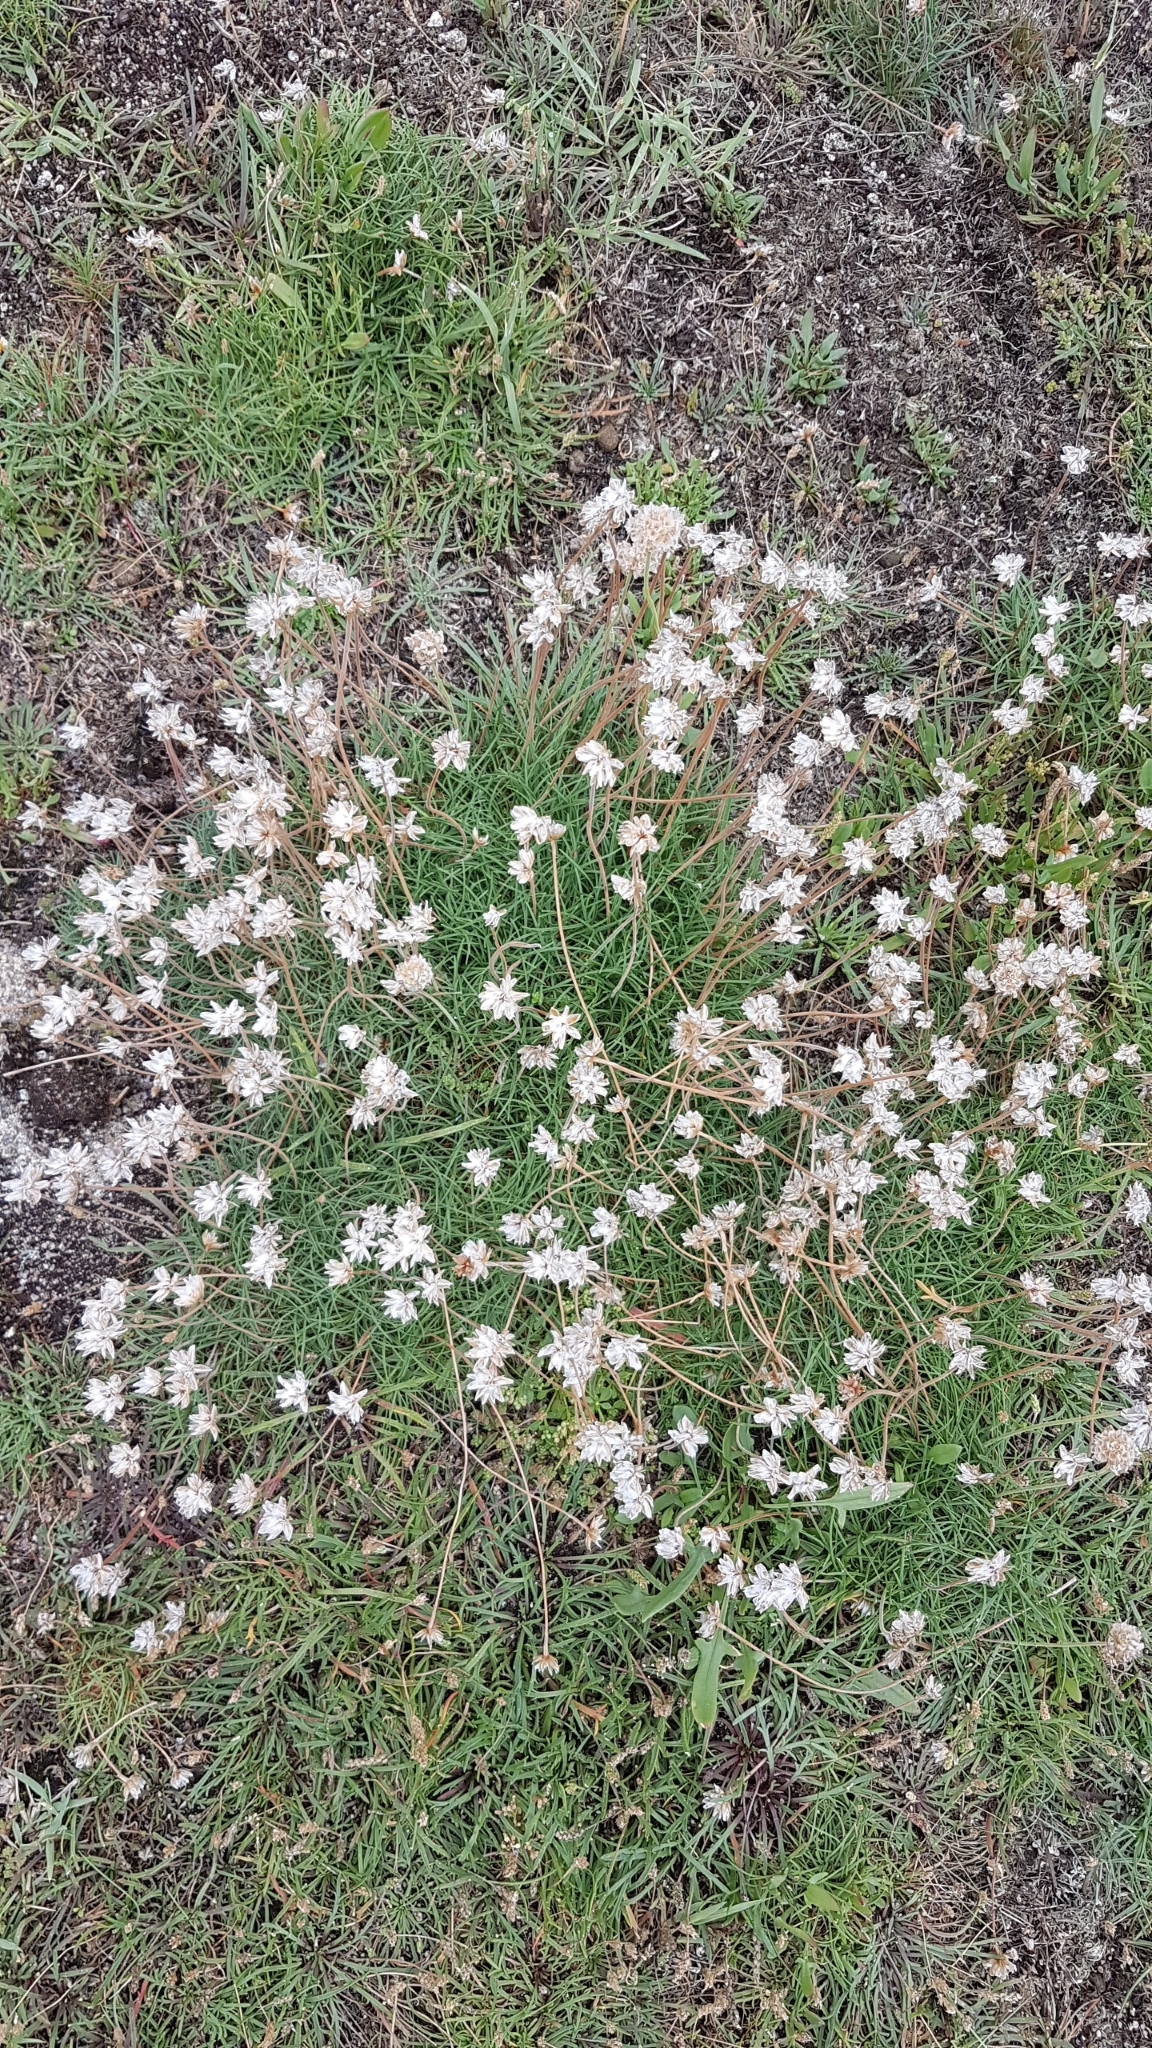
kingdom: Plantae
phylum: Tracheophyta
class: Magnoliopsida
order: Caryophyllales
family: Plumbaginaceae
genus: Armeria
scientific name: Armeria maritima
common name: Thrift
